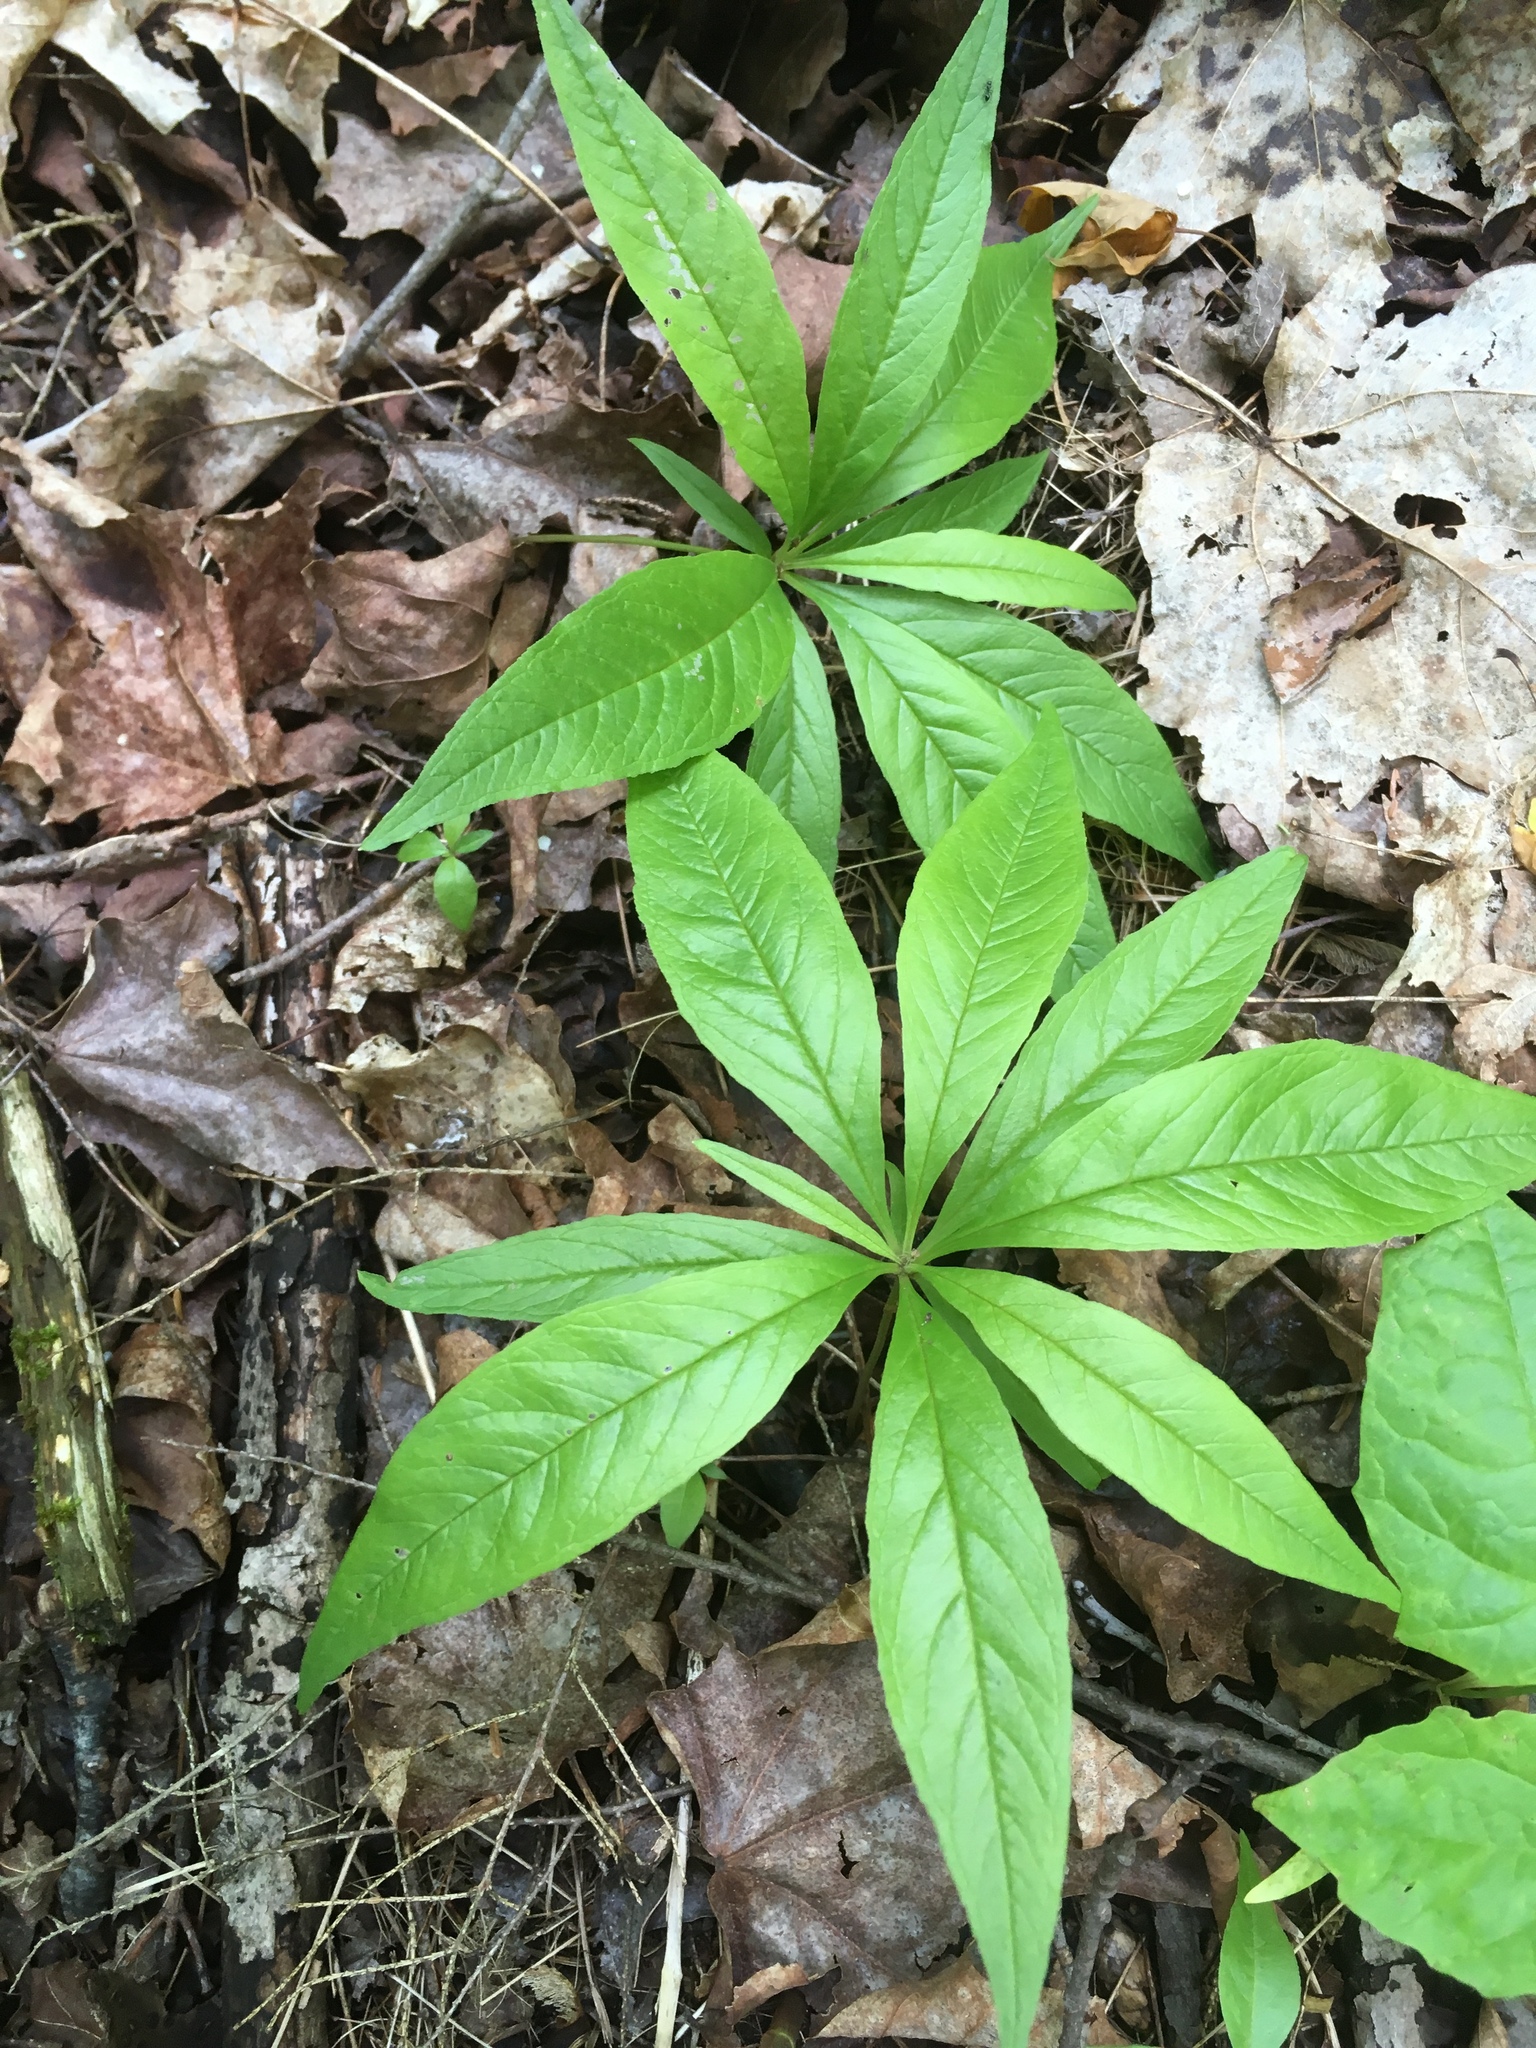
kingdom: Plantae
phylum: Tracheophyta
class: Magnoliopsida
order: Ericales
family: Primulaceae
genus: Lysimachia
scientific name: Lysimachia borealis
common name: American starflower
